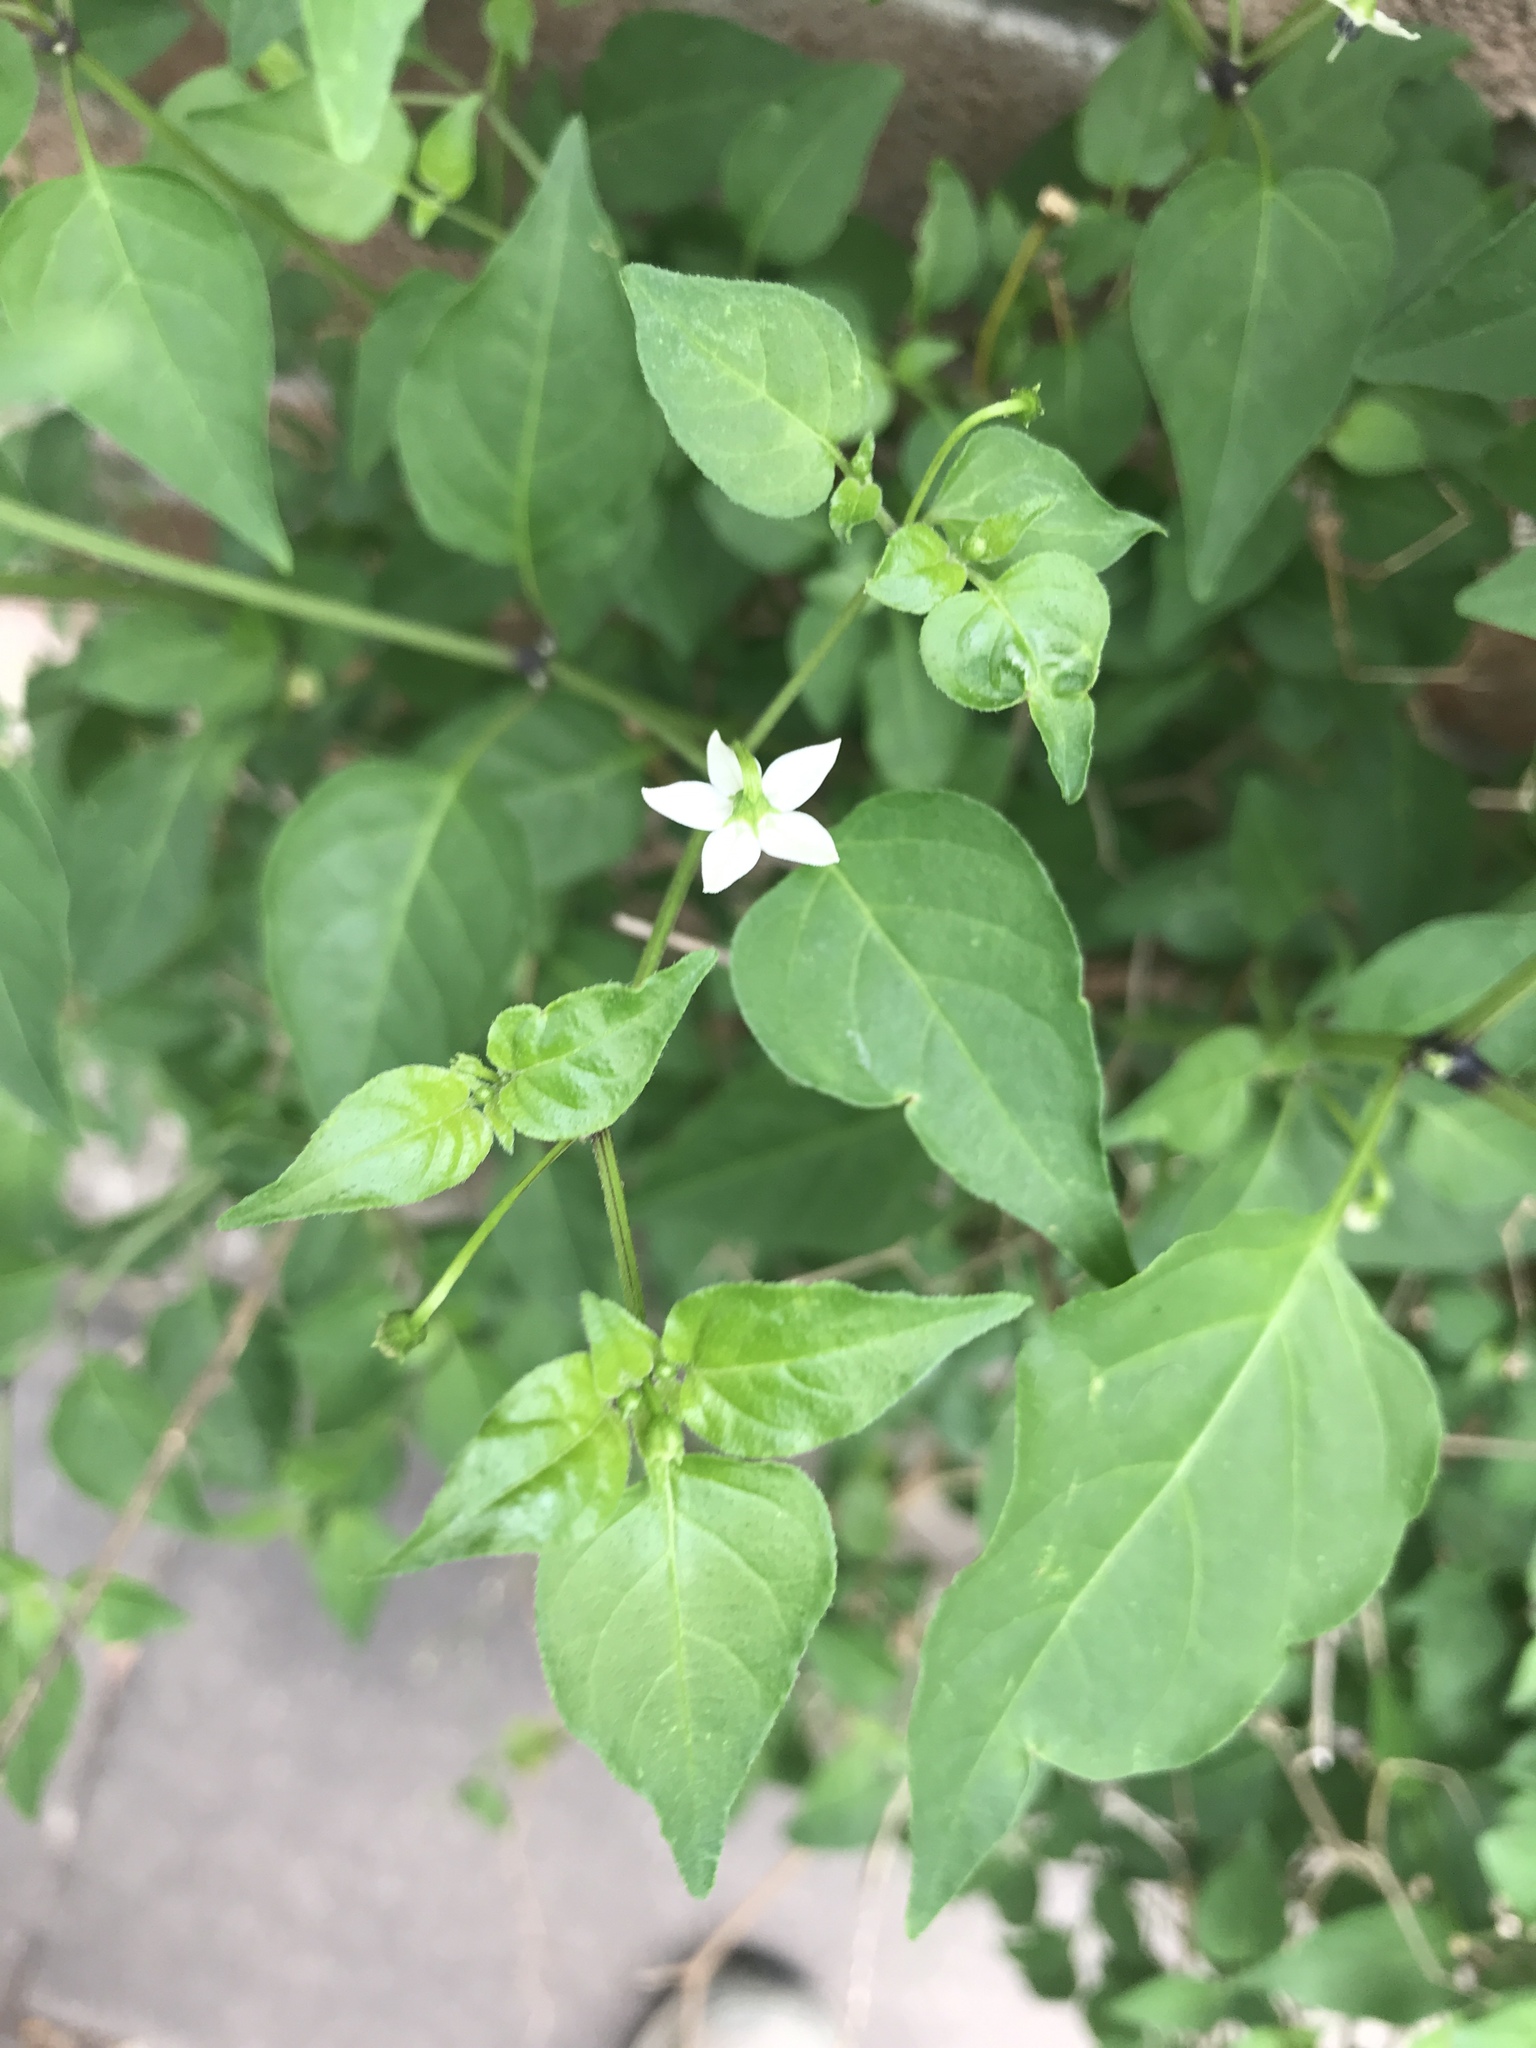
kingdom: Plantae
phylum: Tracheophyta
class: Magnoliopsida
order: Solanales
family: Solanaceae
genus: Capsicum
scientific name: Capsicum annuum
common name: Sweet pepper
